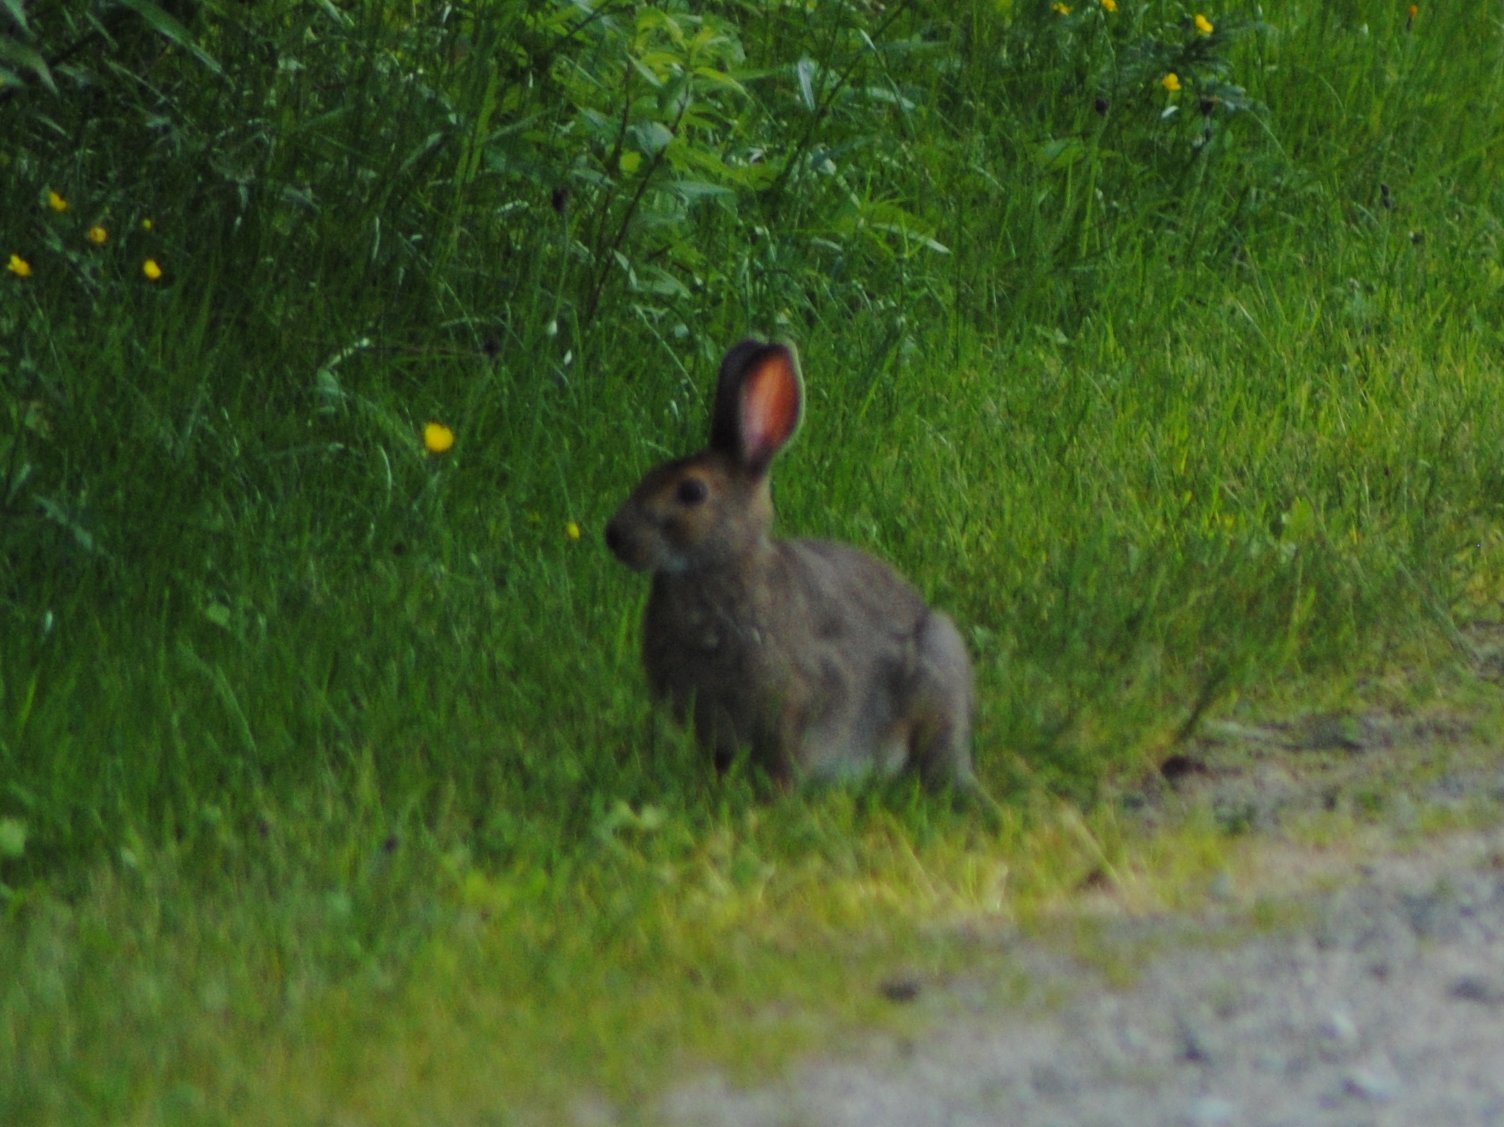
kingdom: Animalia
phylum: Chordata
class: Mammalia
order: Lagomorpha
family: Leporidae
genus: Lepus
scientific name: Lepus americanus
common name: Snowshoe hare
